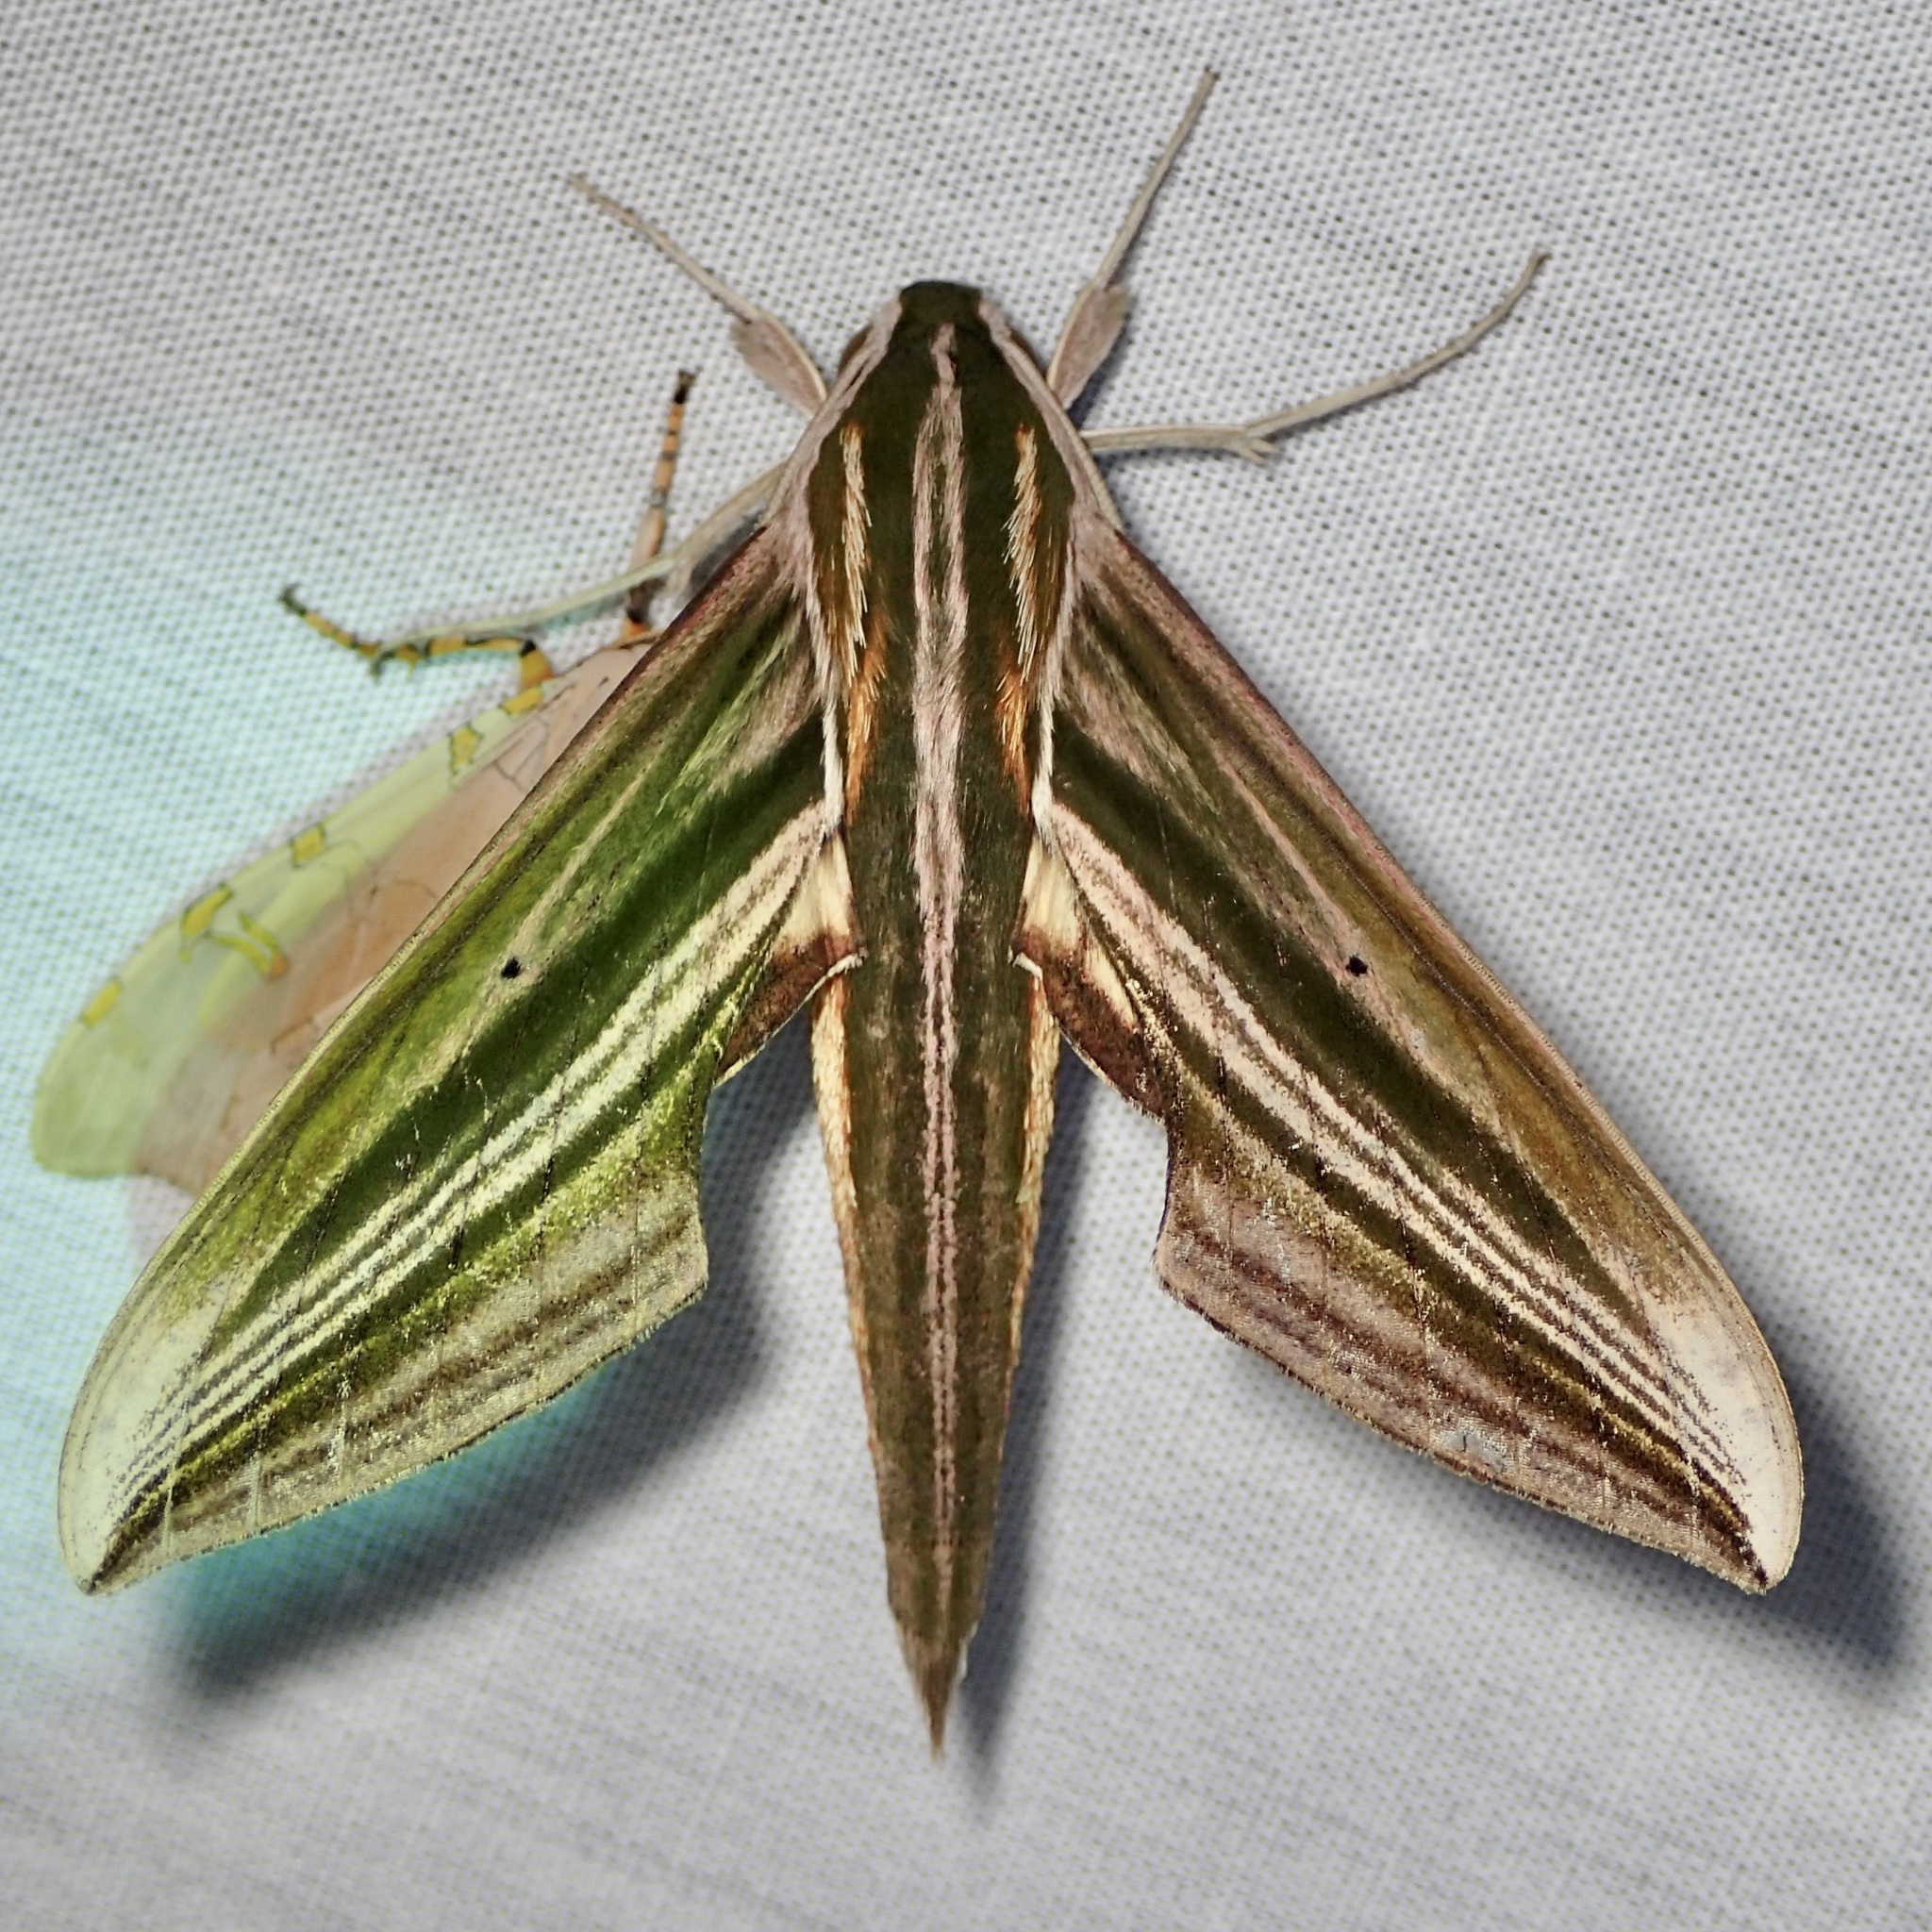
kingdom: Animalia
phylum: Arthropoda
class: Insecta
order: Lepidoptera
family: Sphingidae
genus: Xylophanes
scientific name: Xylophanes eumedon
